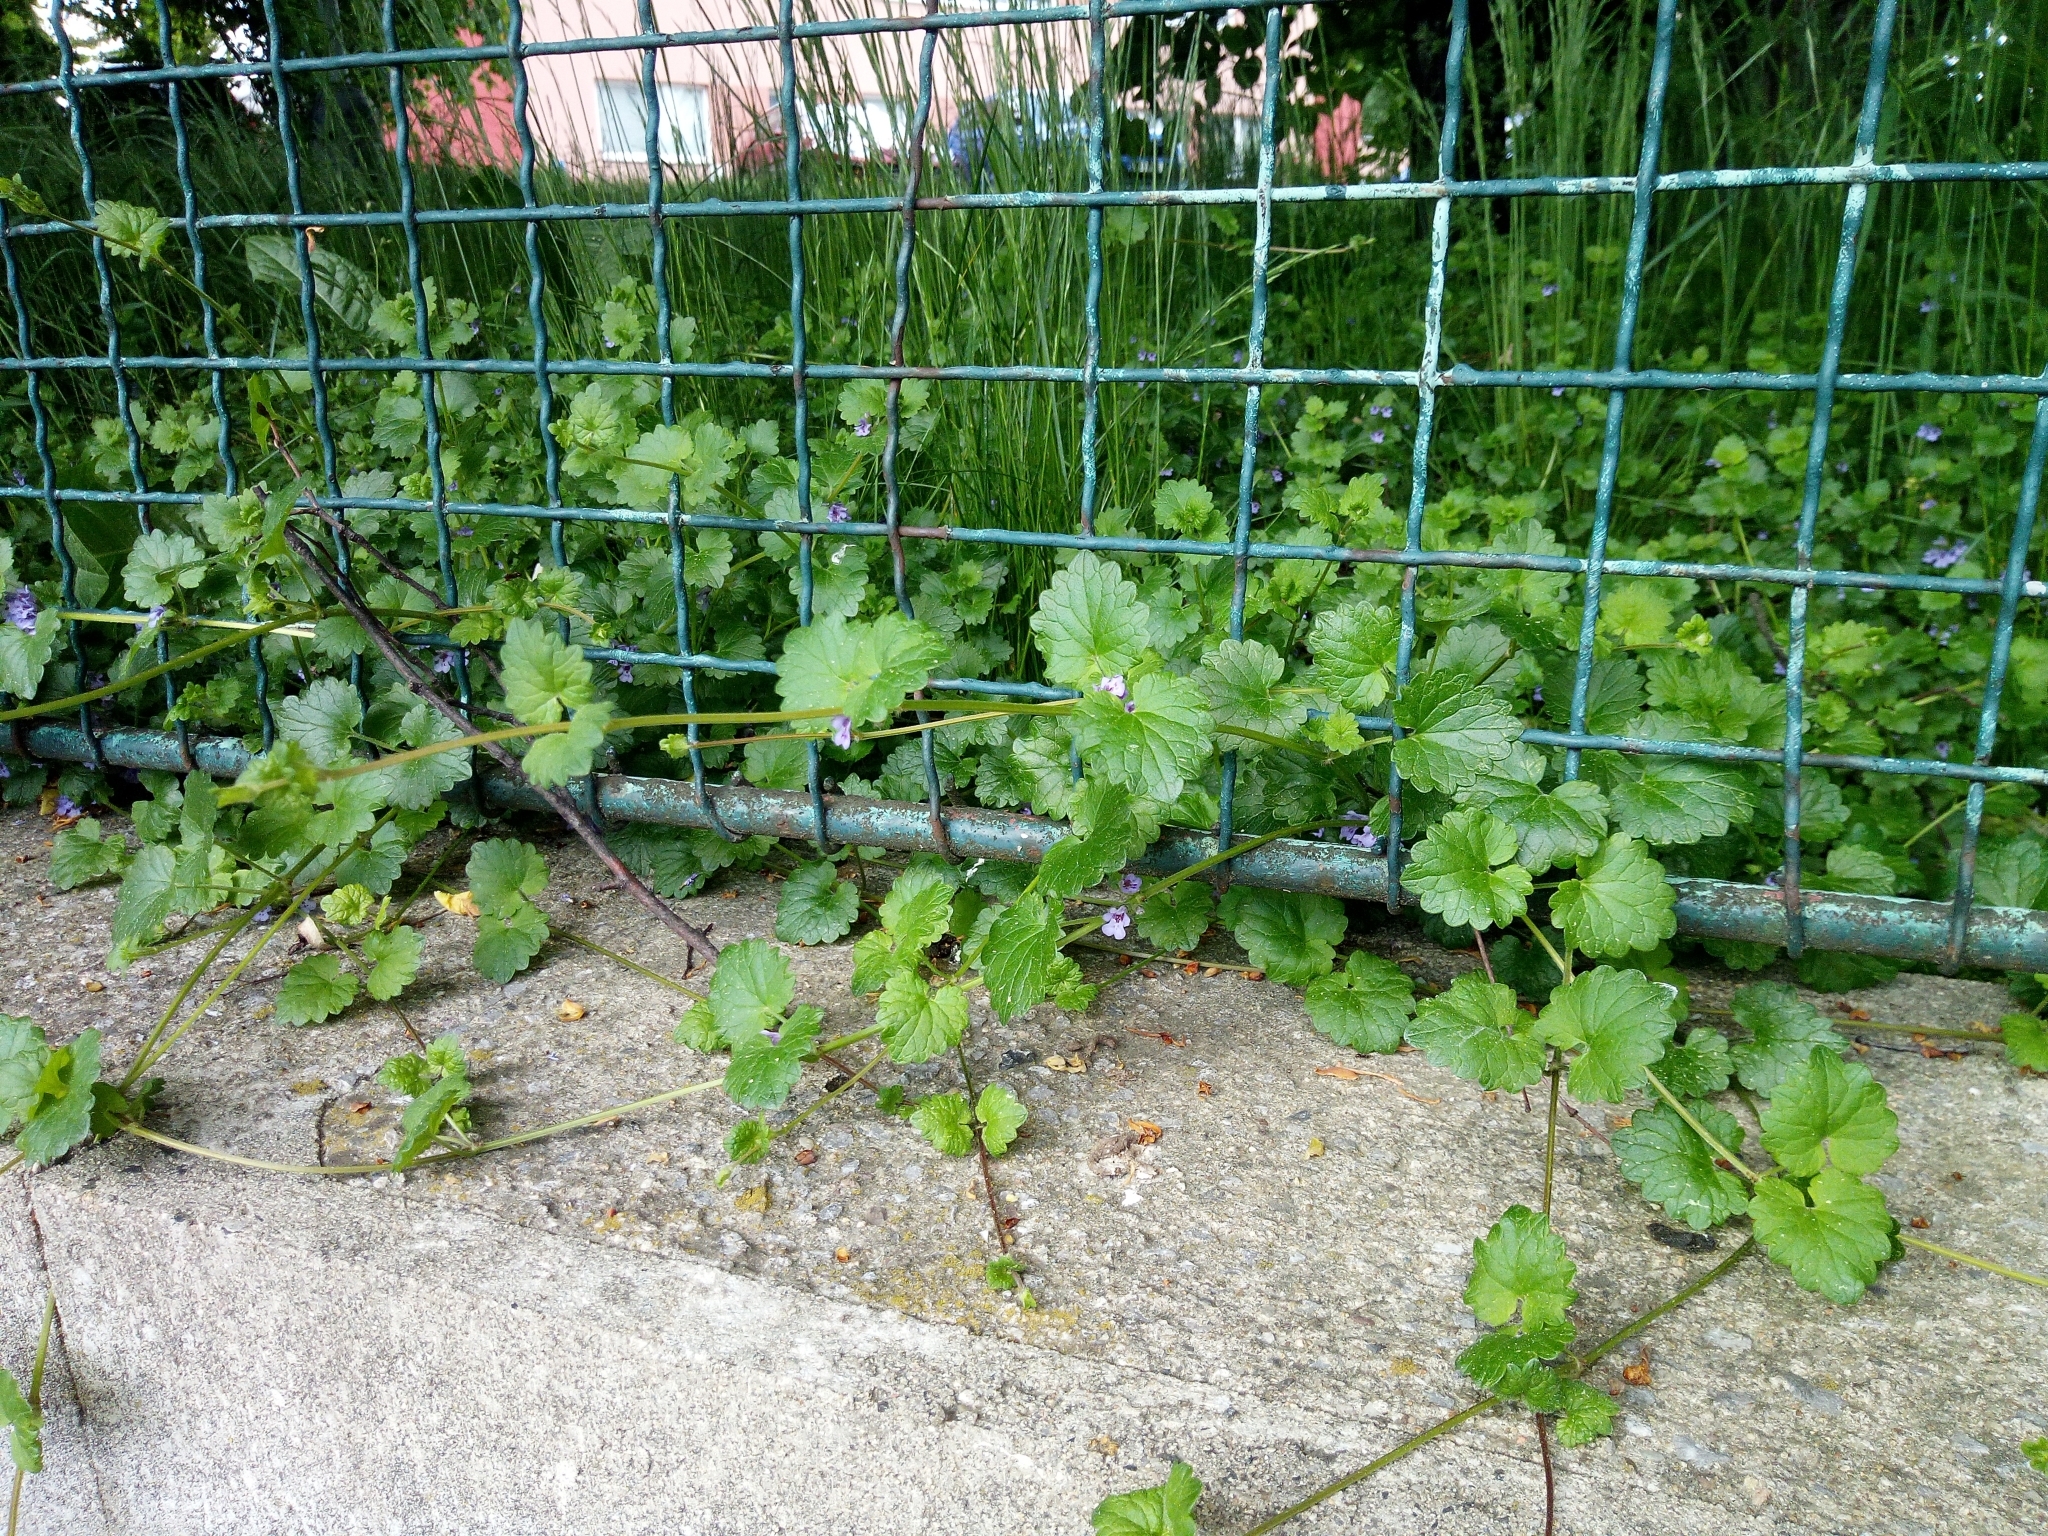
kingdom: Plantae
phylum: Tracheophyta
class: Magnoliopsida
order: Lamiales
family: Lamiaceae
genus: Glechoma
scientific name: Glechoma hederacea
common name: Ground ivy
